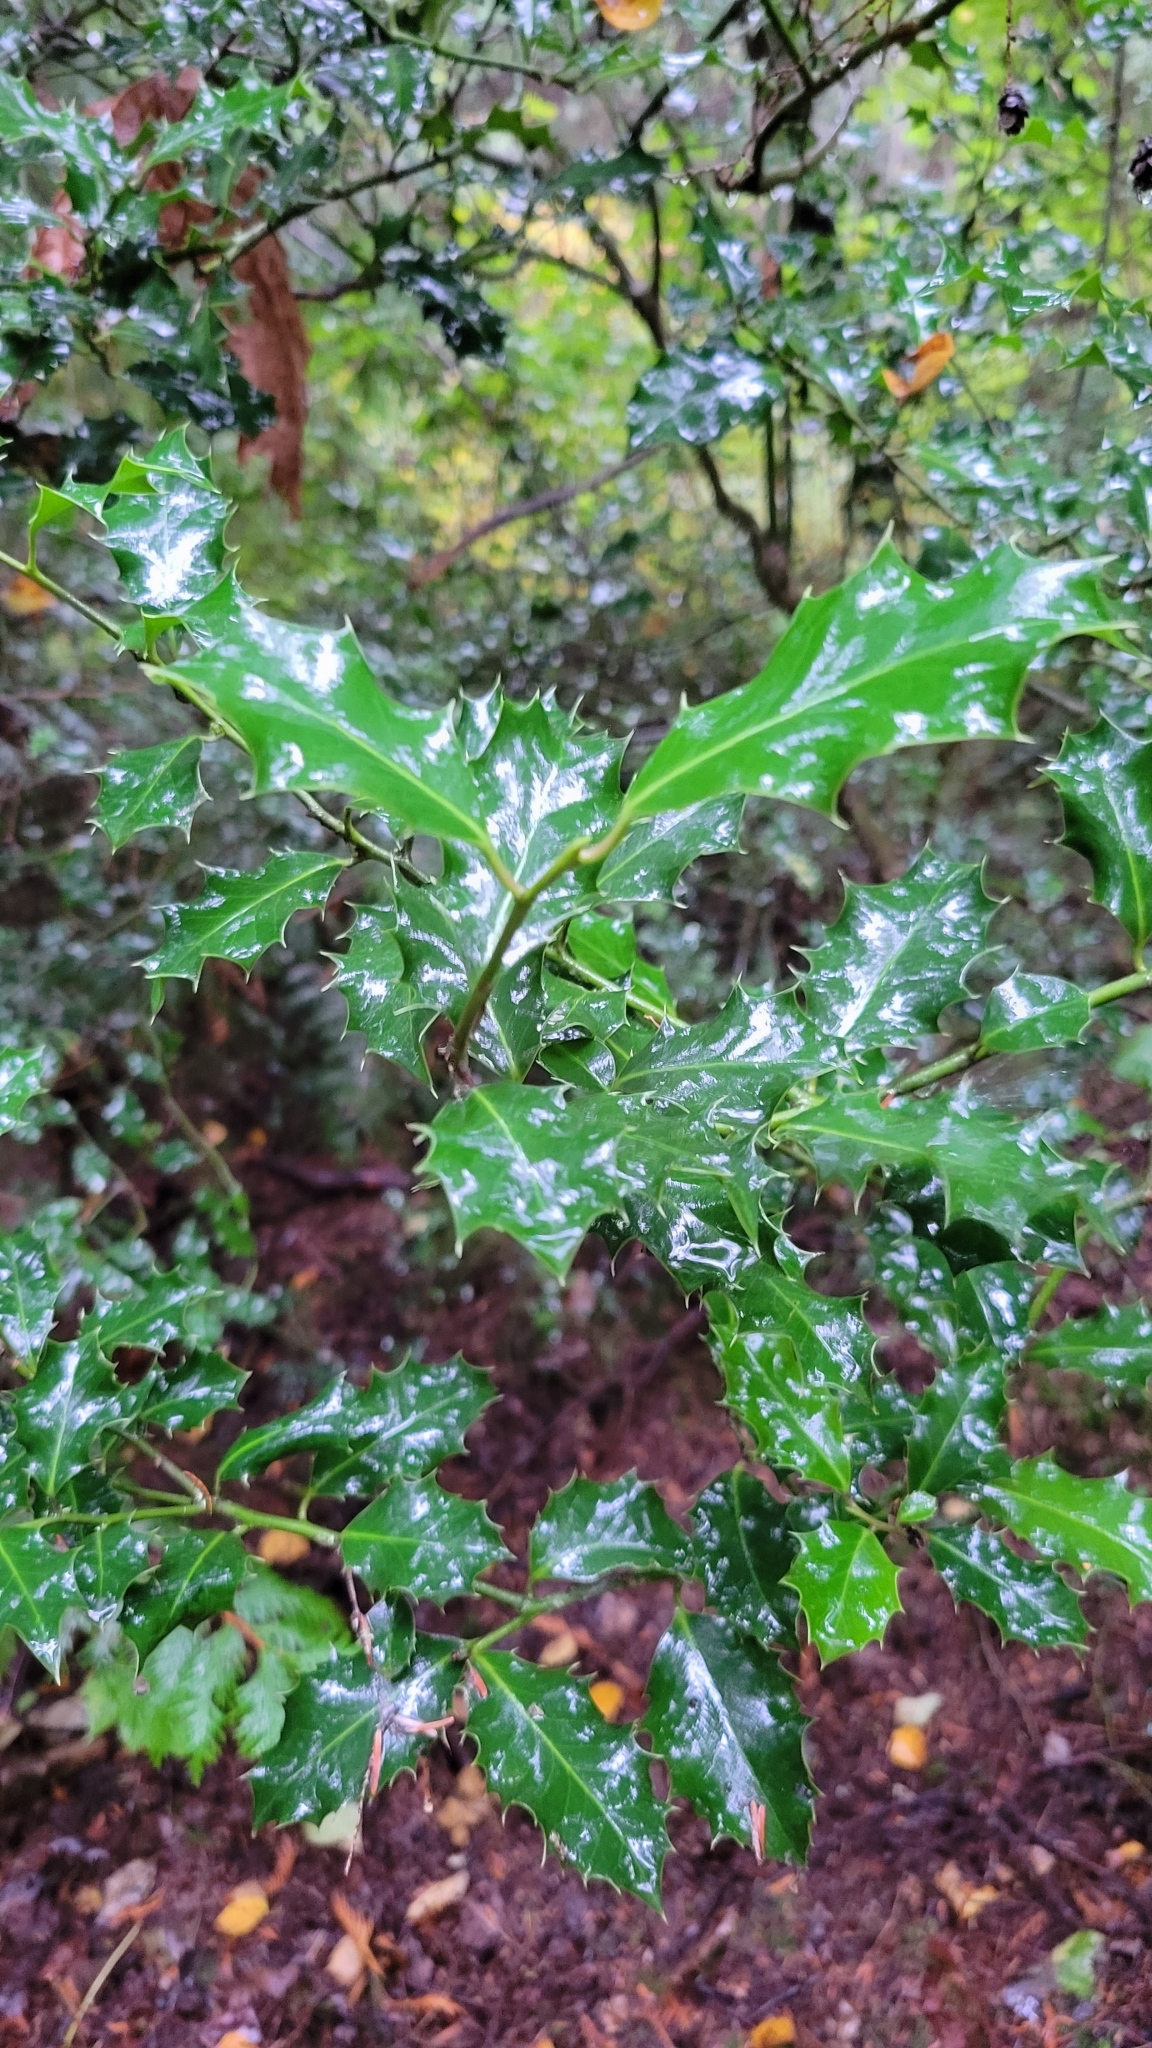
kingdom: Plantae
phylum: Tracheophyta
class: Magnoliopsida
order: Aquifoliales
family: Aquifoliaceae
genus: Ilex
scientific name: Ilex aquifolium
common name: English holly
